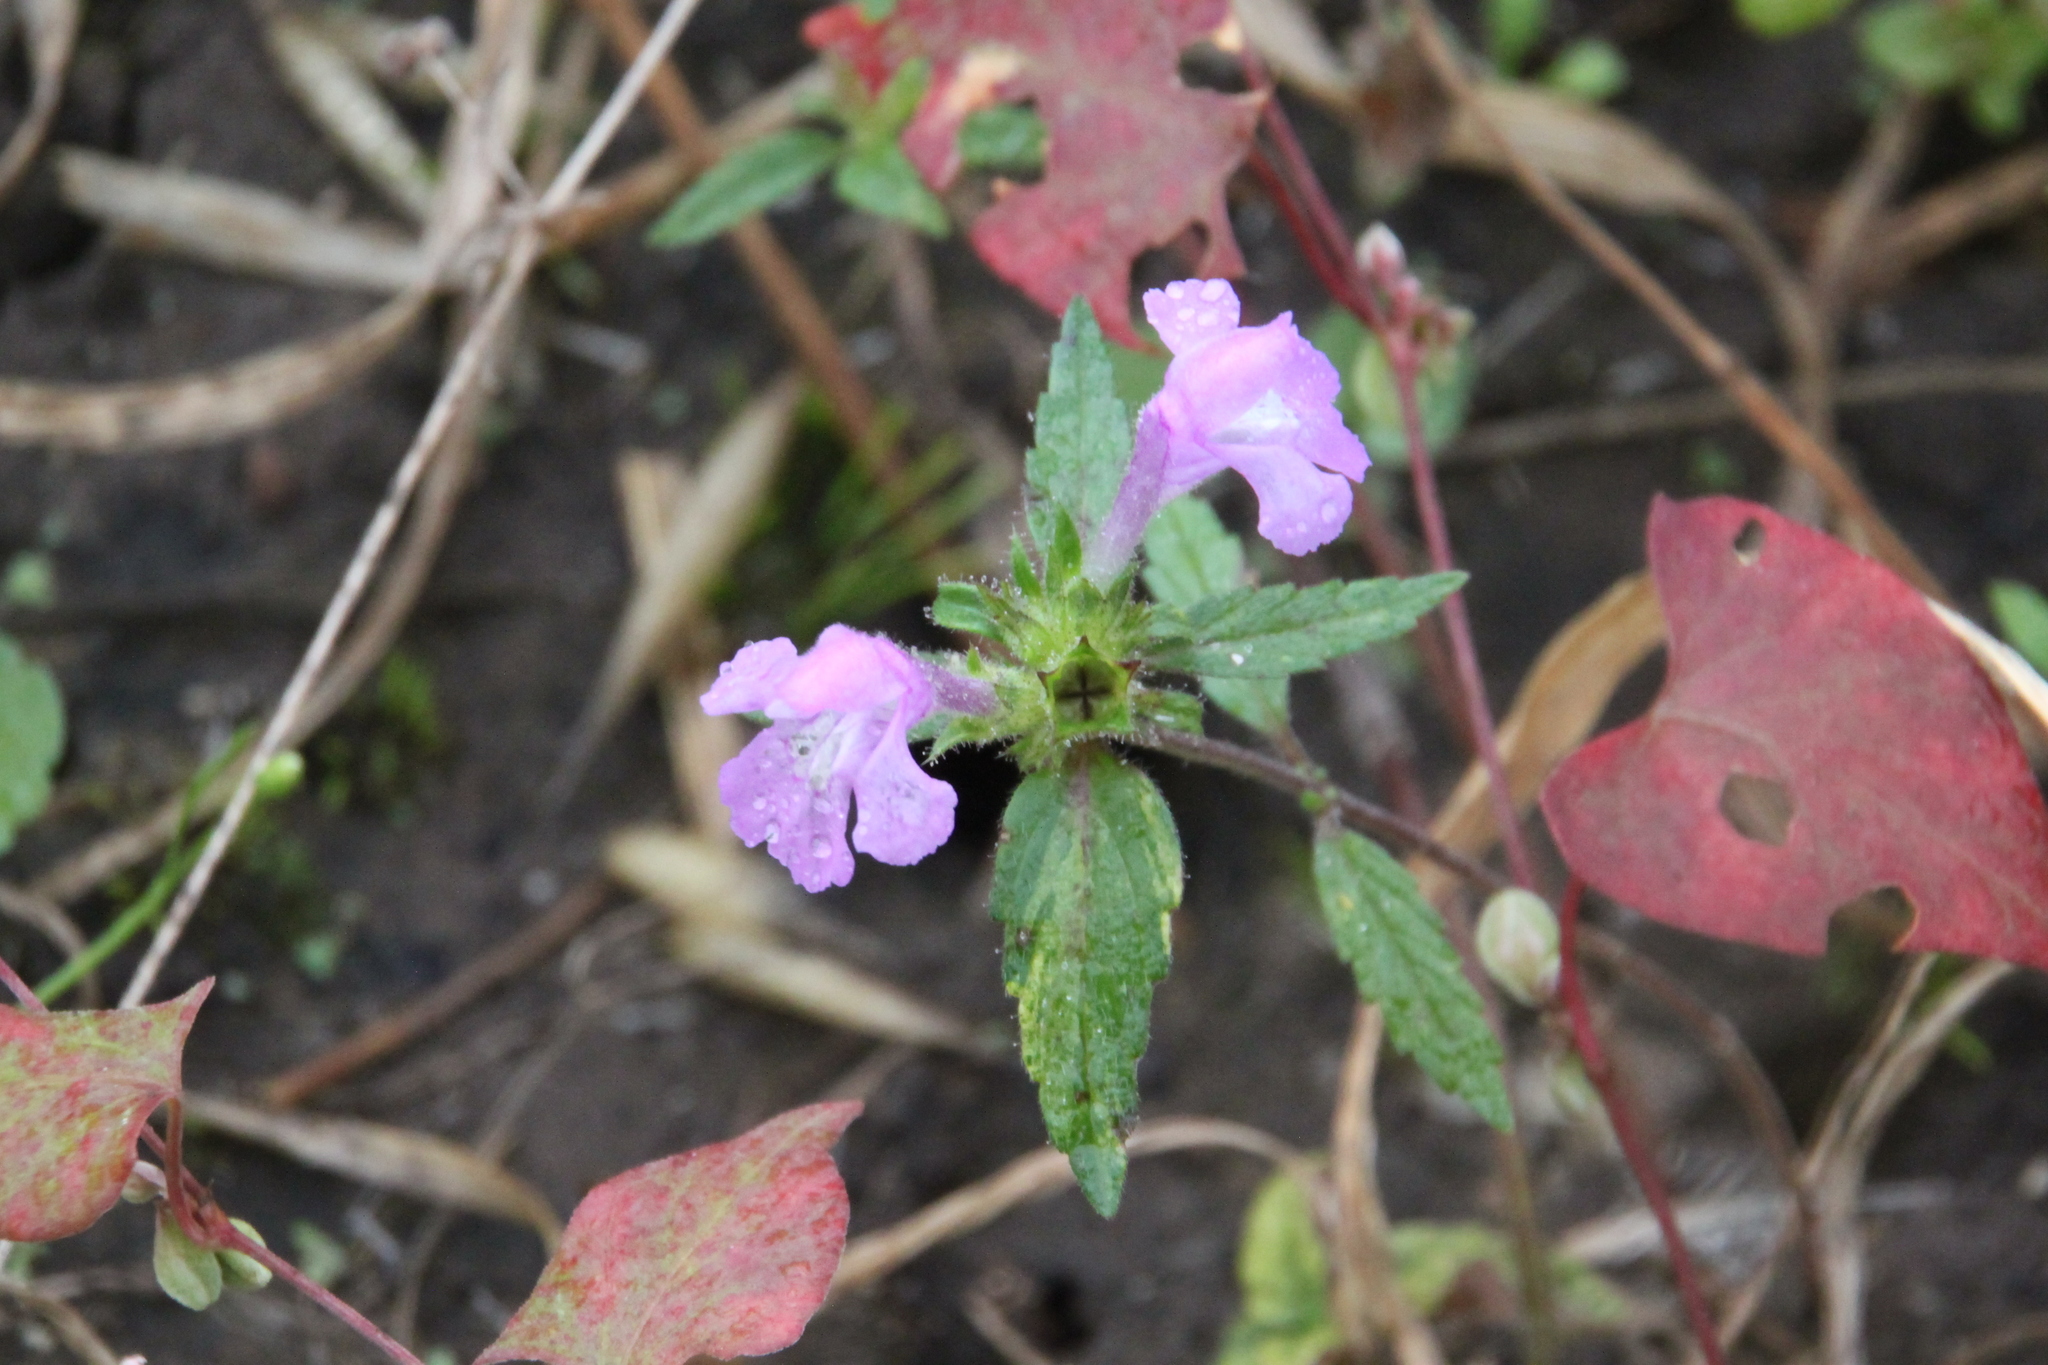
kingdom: Plantae
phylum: Tracheophyta
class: Magnoliopsida
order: Lamiales
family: Lamiaceae
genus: Galeopsis
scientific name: Galeopsis ladanum
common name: Broad-leaved hemp-nettle
